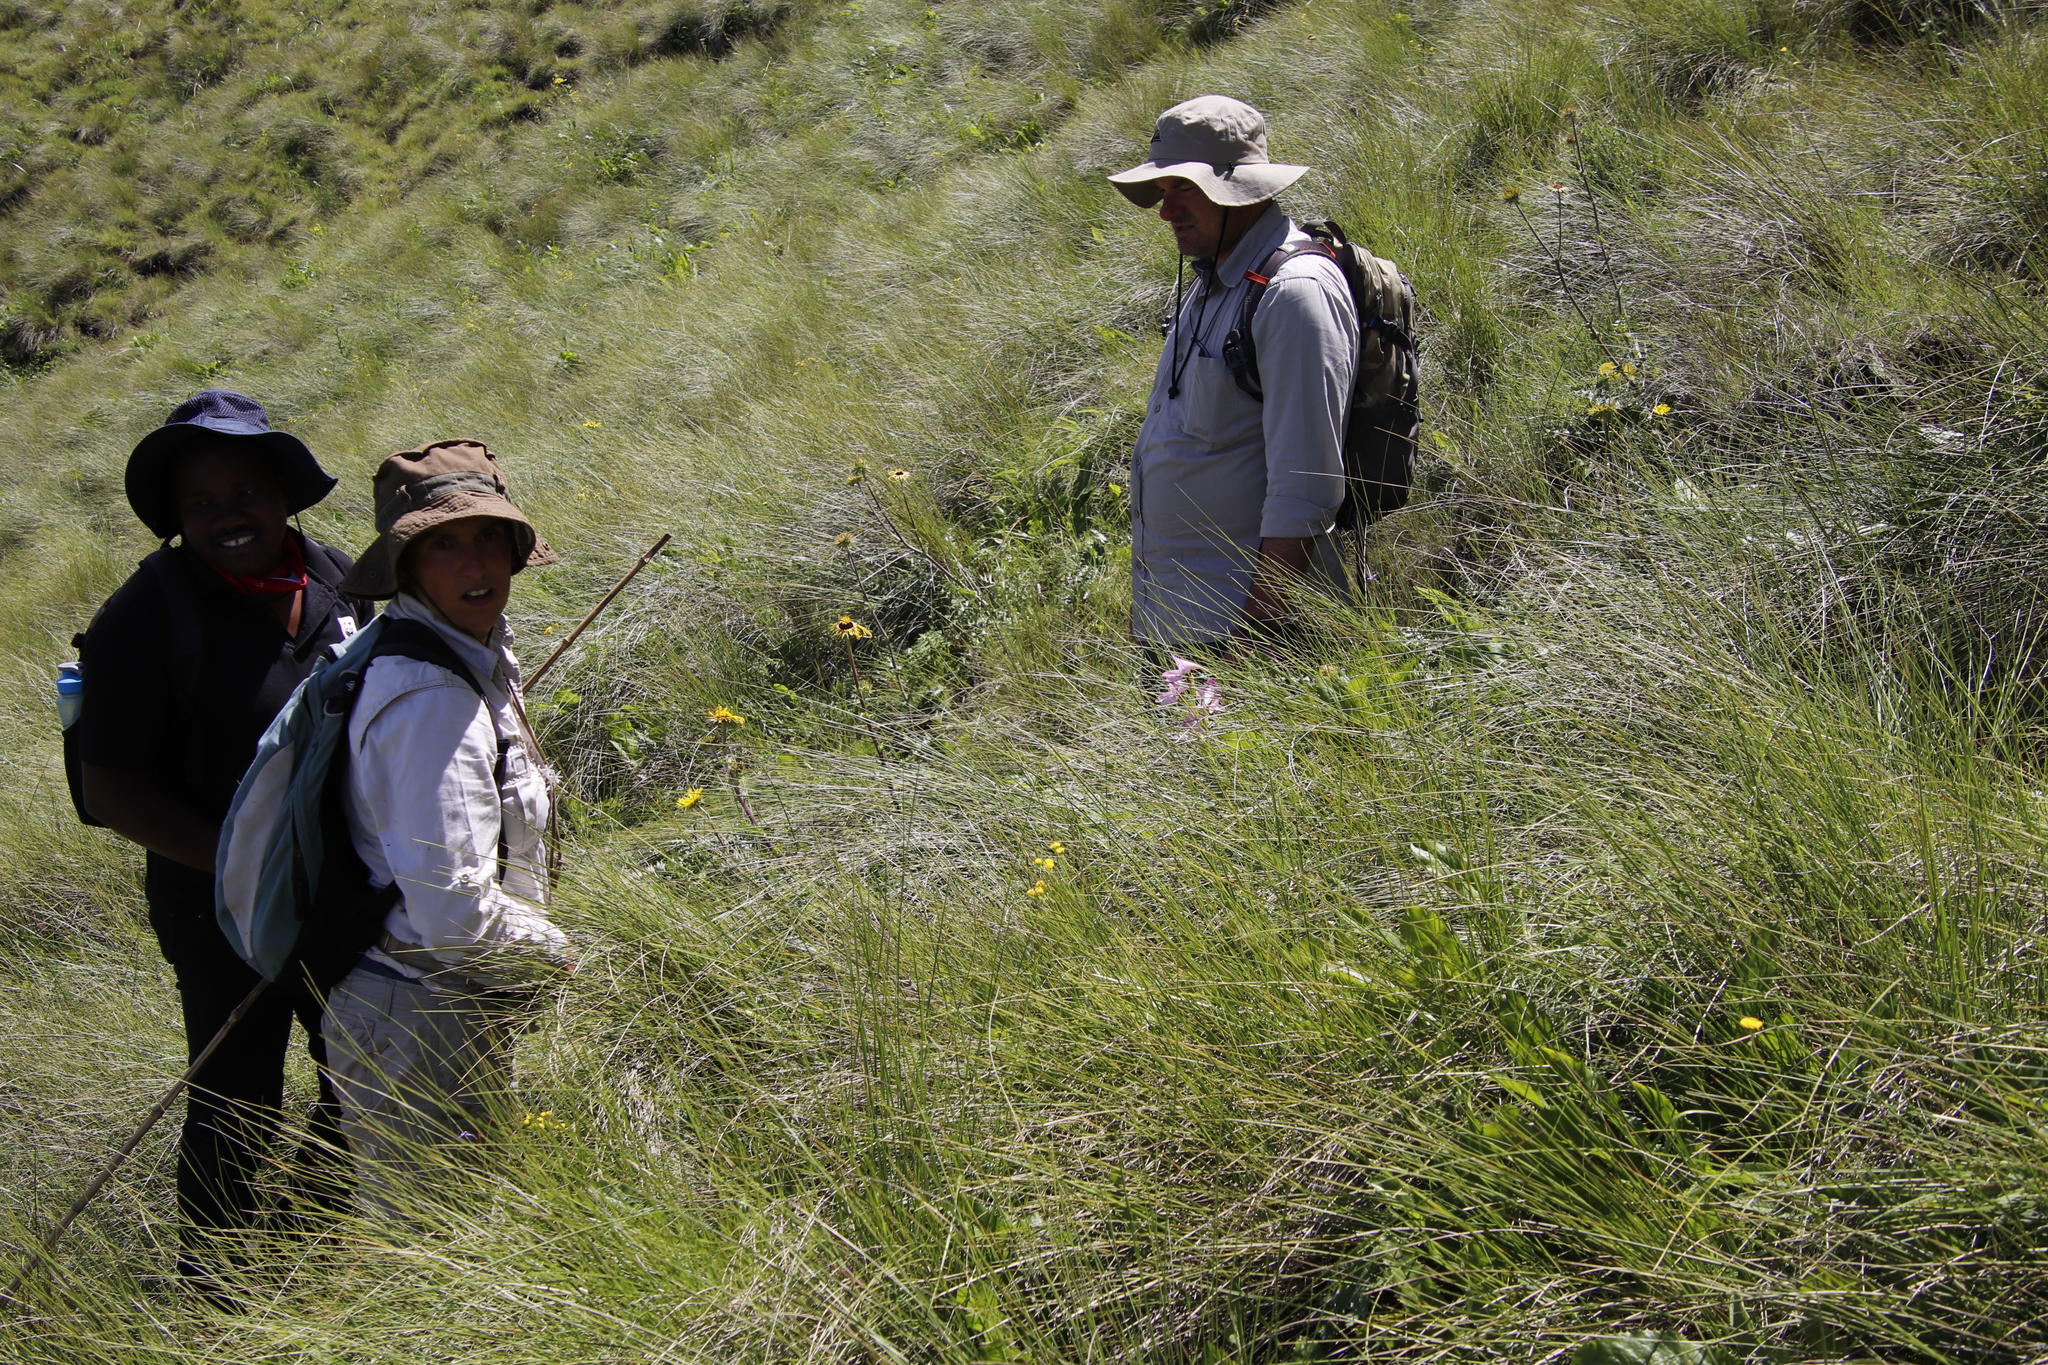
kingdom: Plantae
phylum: Tracheophyta
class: Liliopsida
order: Asparagales
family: Orchidaceae
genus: Disa
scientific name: Disa crassicornis
